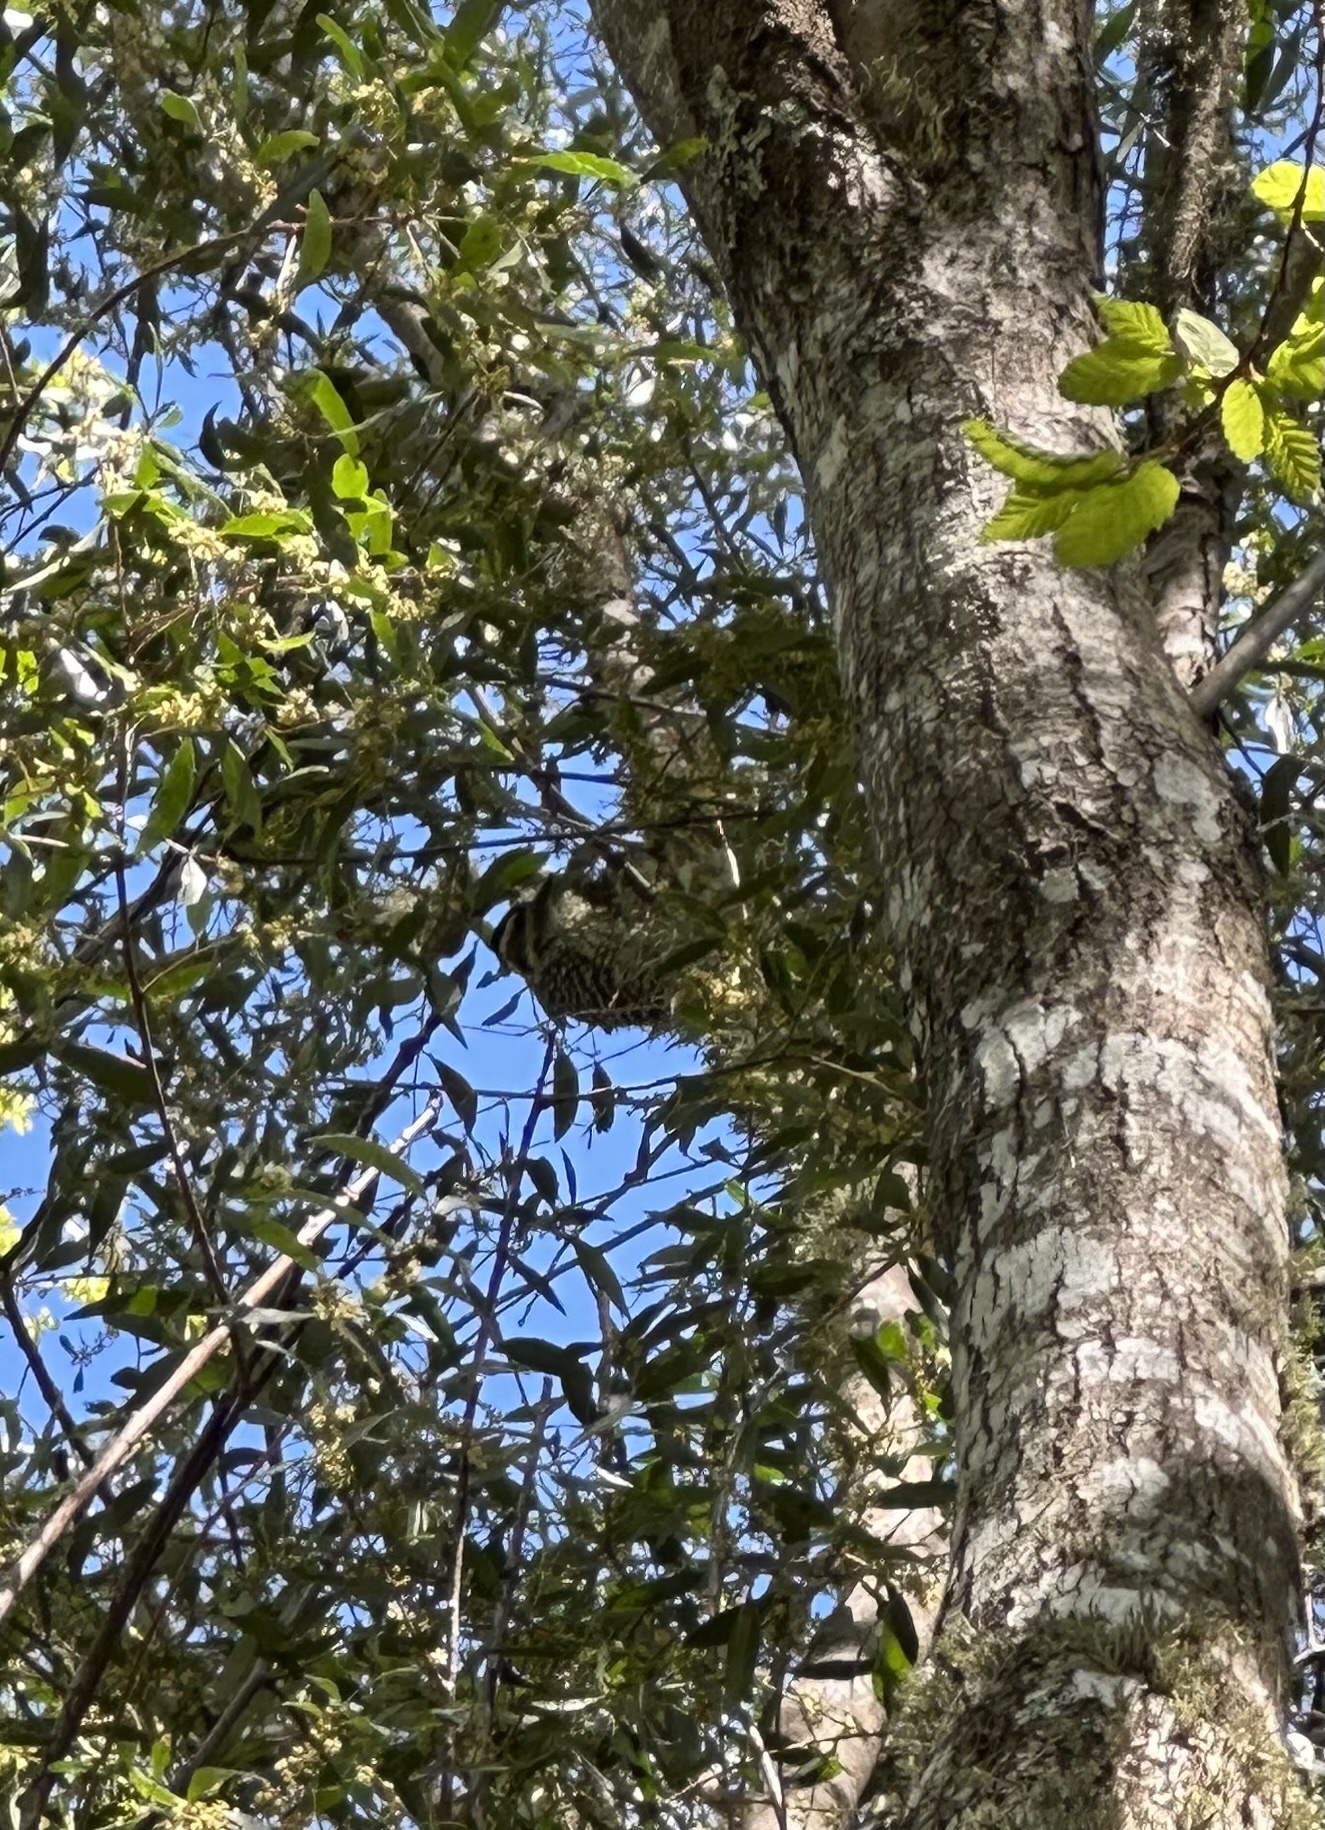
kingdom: Animalia
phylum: Chordata
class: Aves
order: Piciformes
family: Picidae
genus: Veniliornis
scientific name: Veniliornis lignarius
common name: Striped woodpecker
